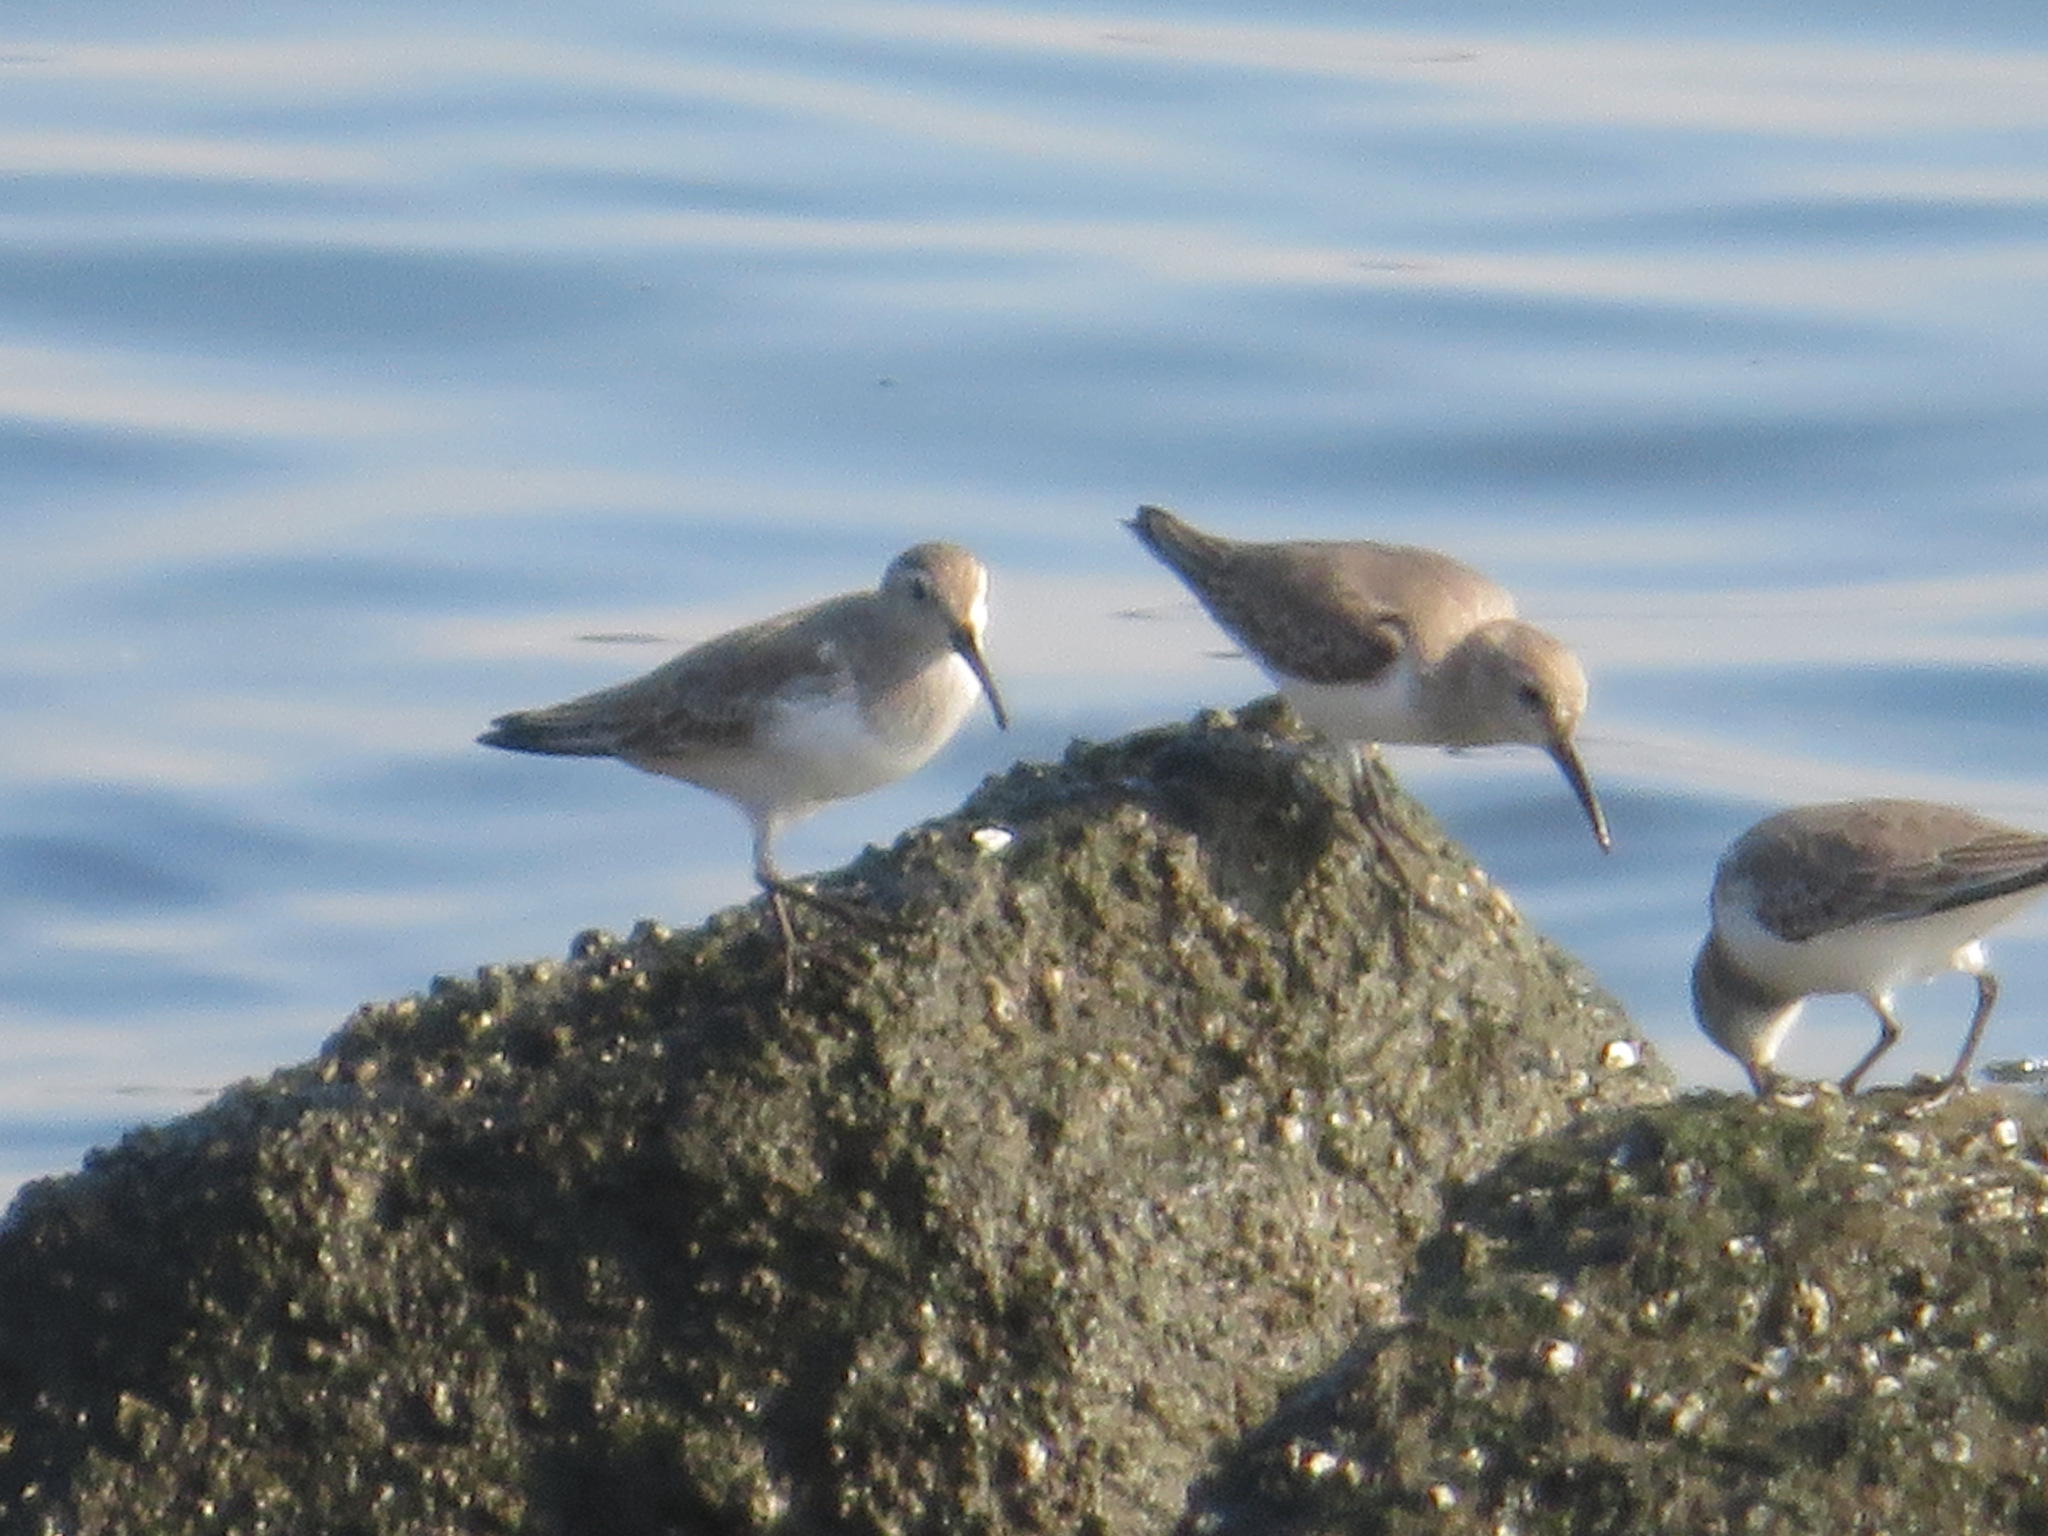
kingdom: Animalia
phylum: Chordata
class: Aves
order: Charadriiformes
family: Scolopacidae
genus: Calidris
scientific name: Calidris alpina
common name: Dunlin
